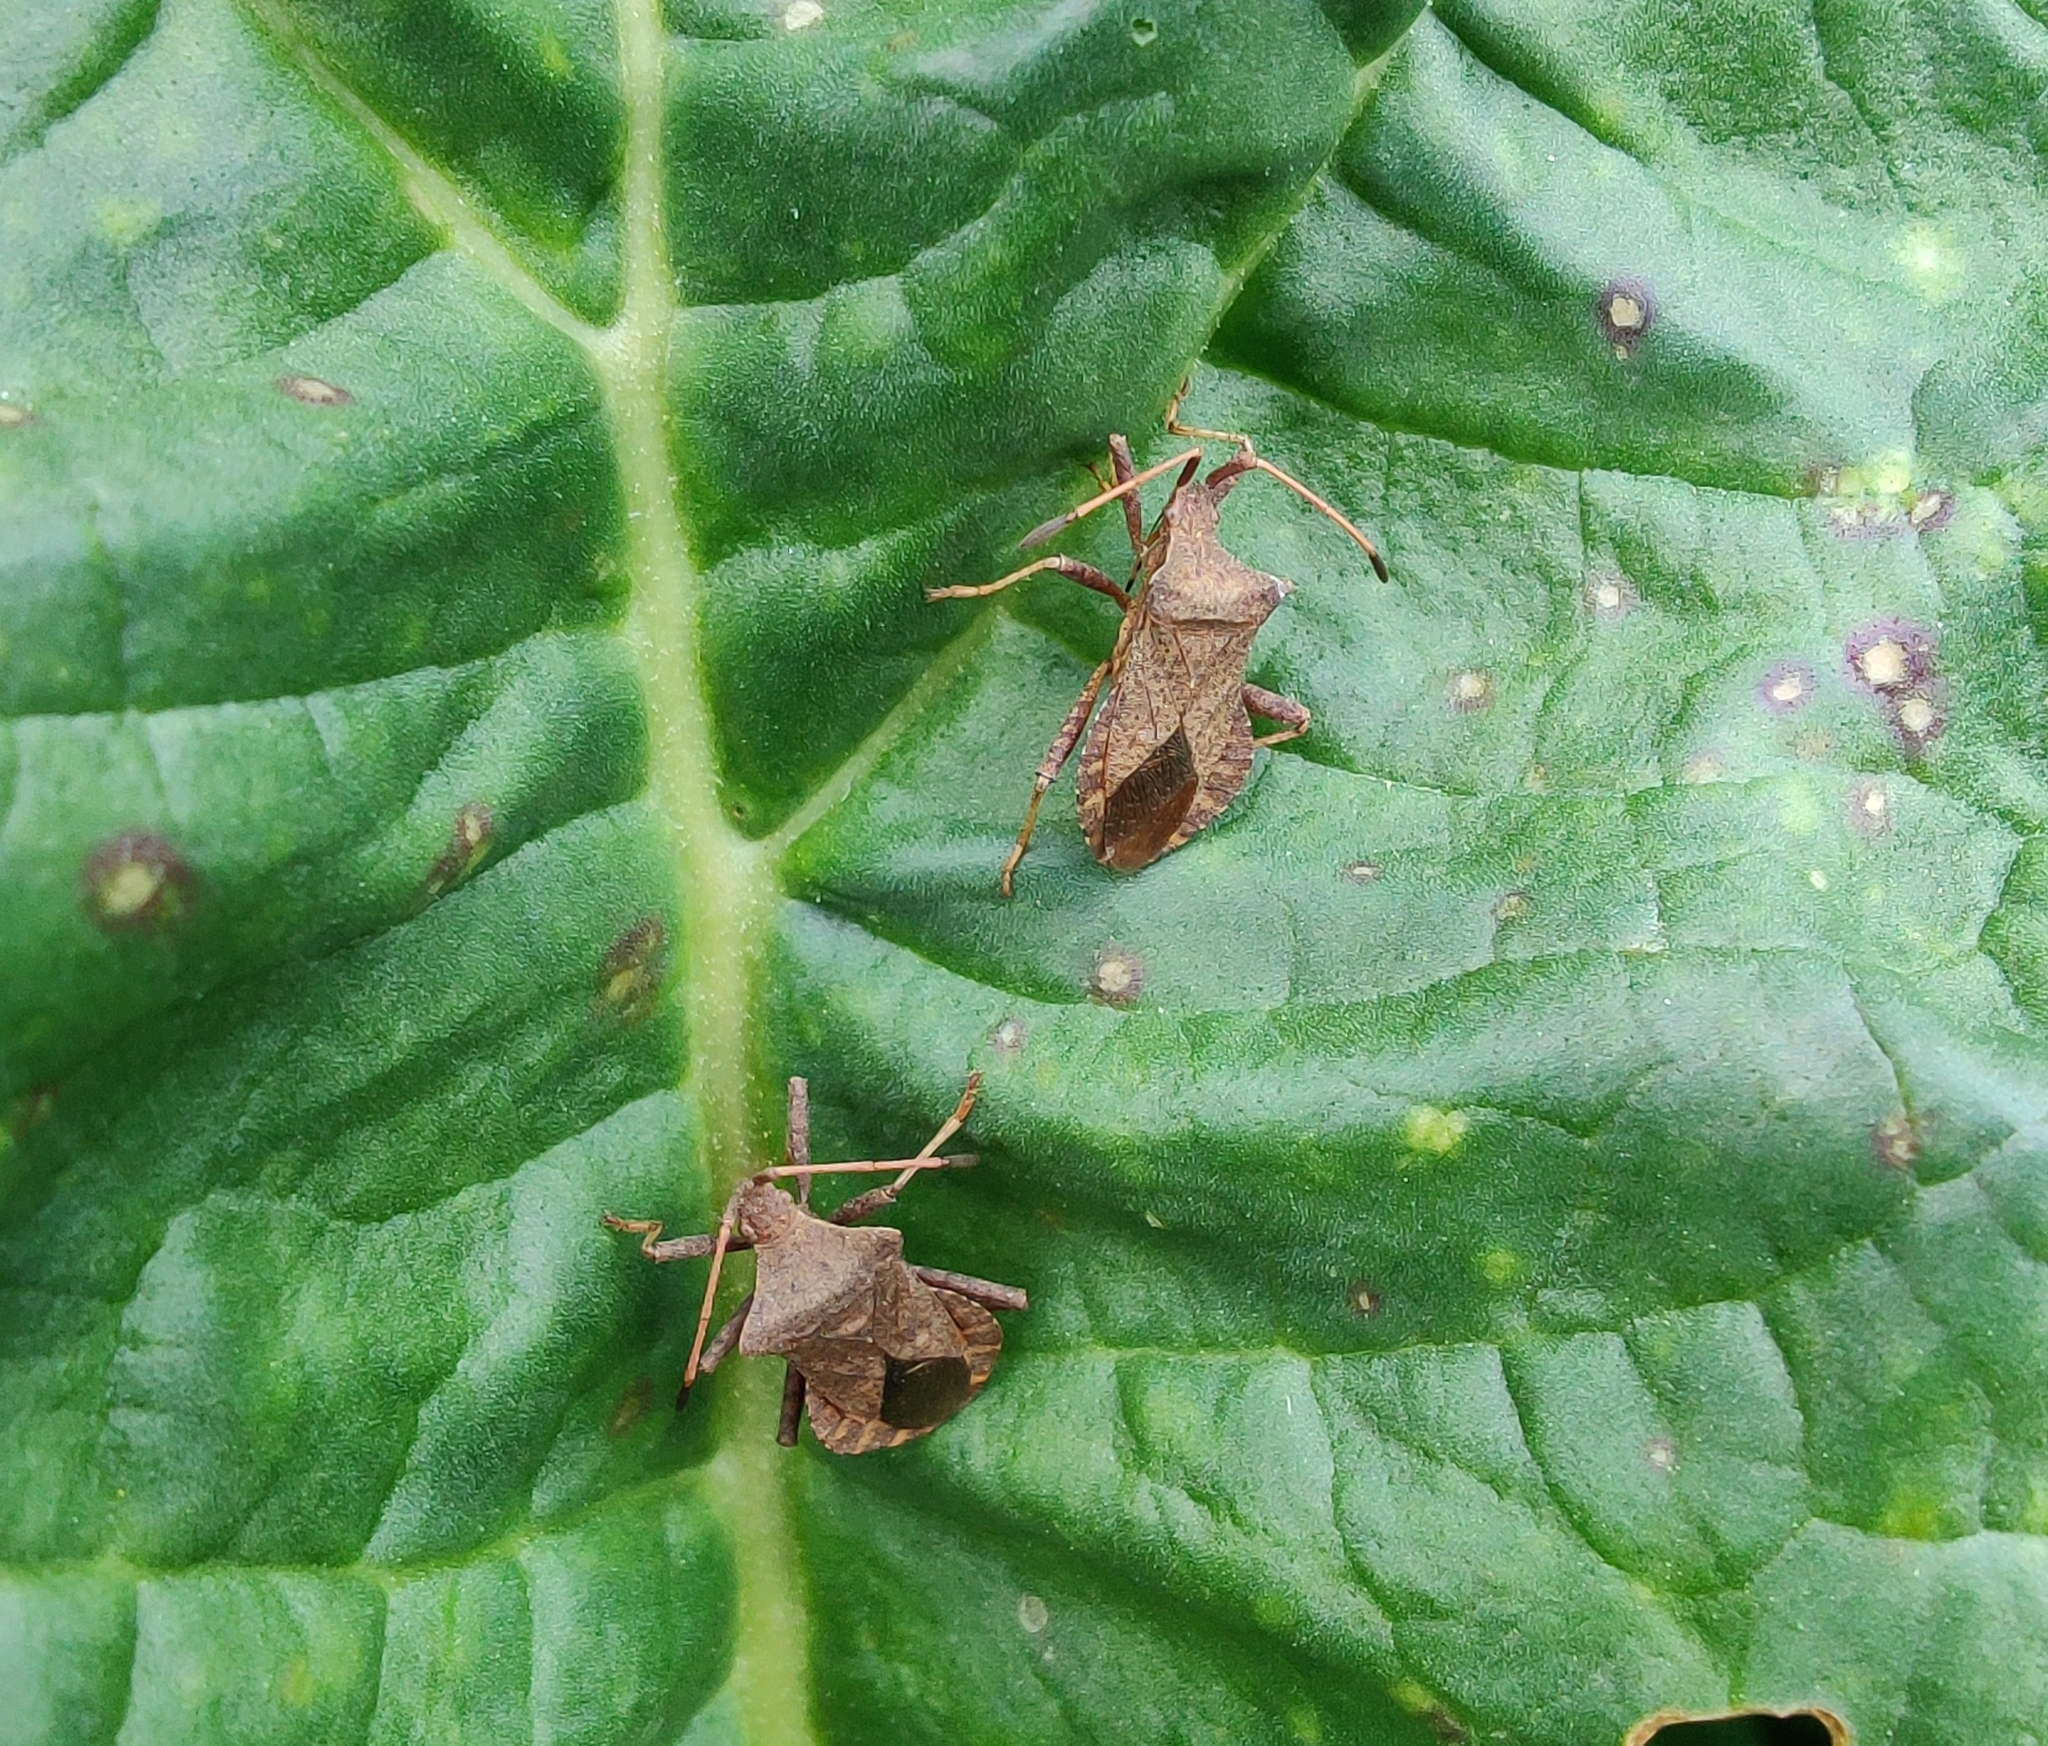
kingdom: Animalia
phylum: Arthropoda
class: Insecta
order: Hemiptera
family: Coreidae
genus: Coreus
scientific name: Coreus marginatus
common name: Dock bug
